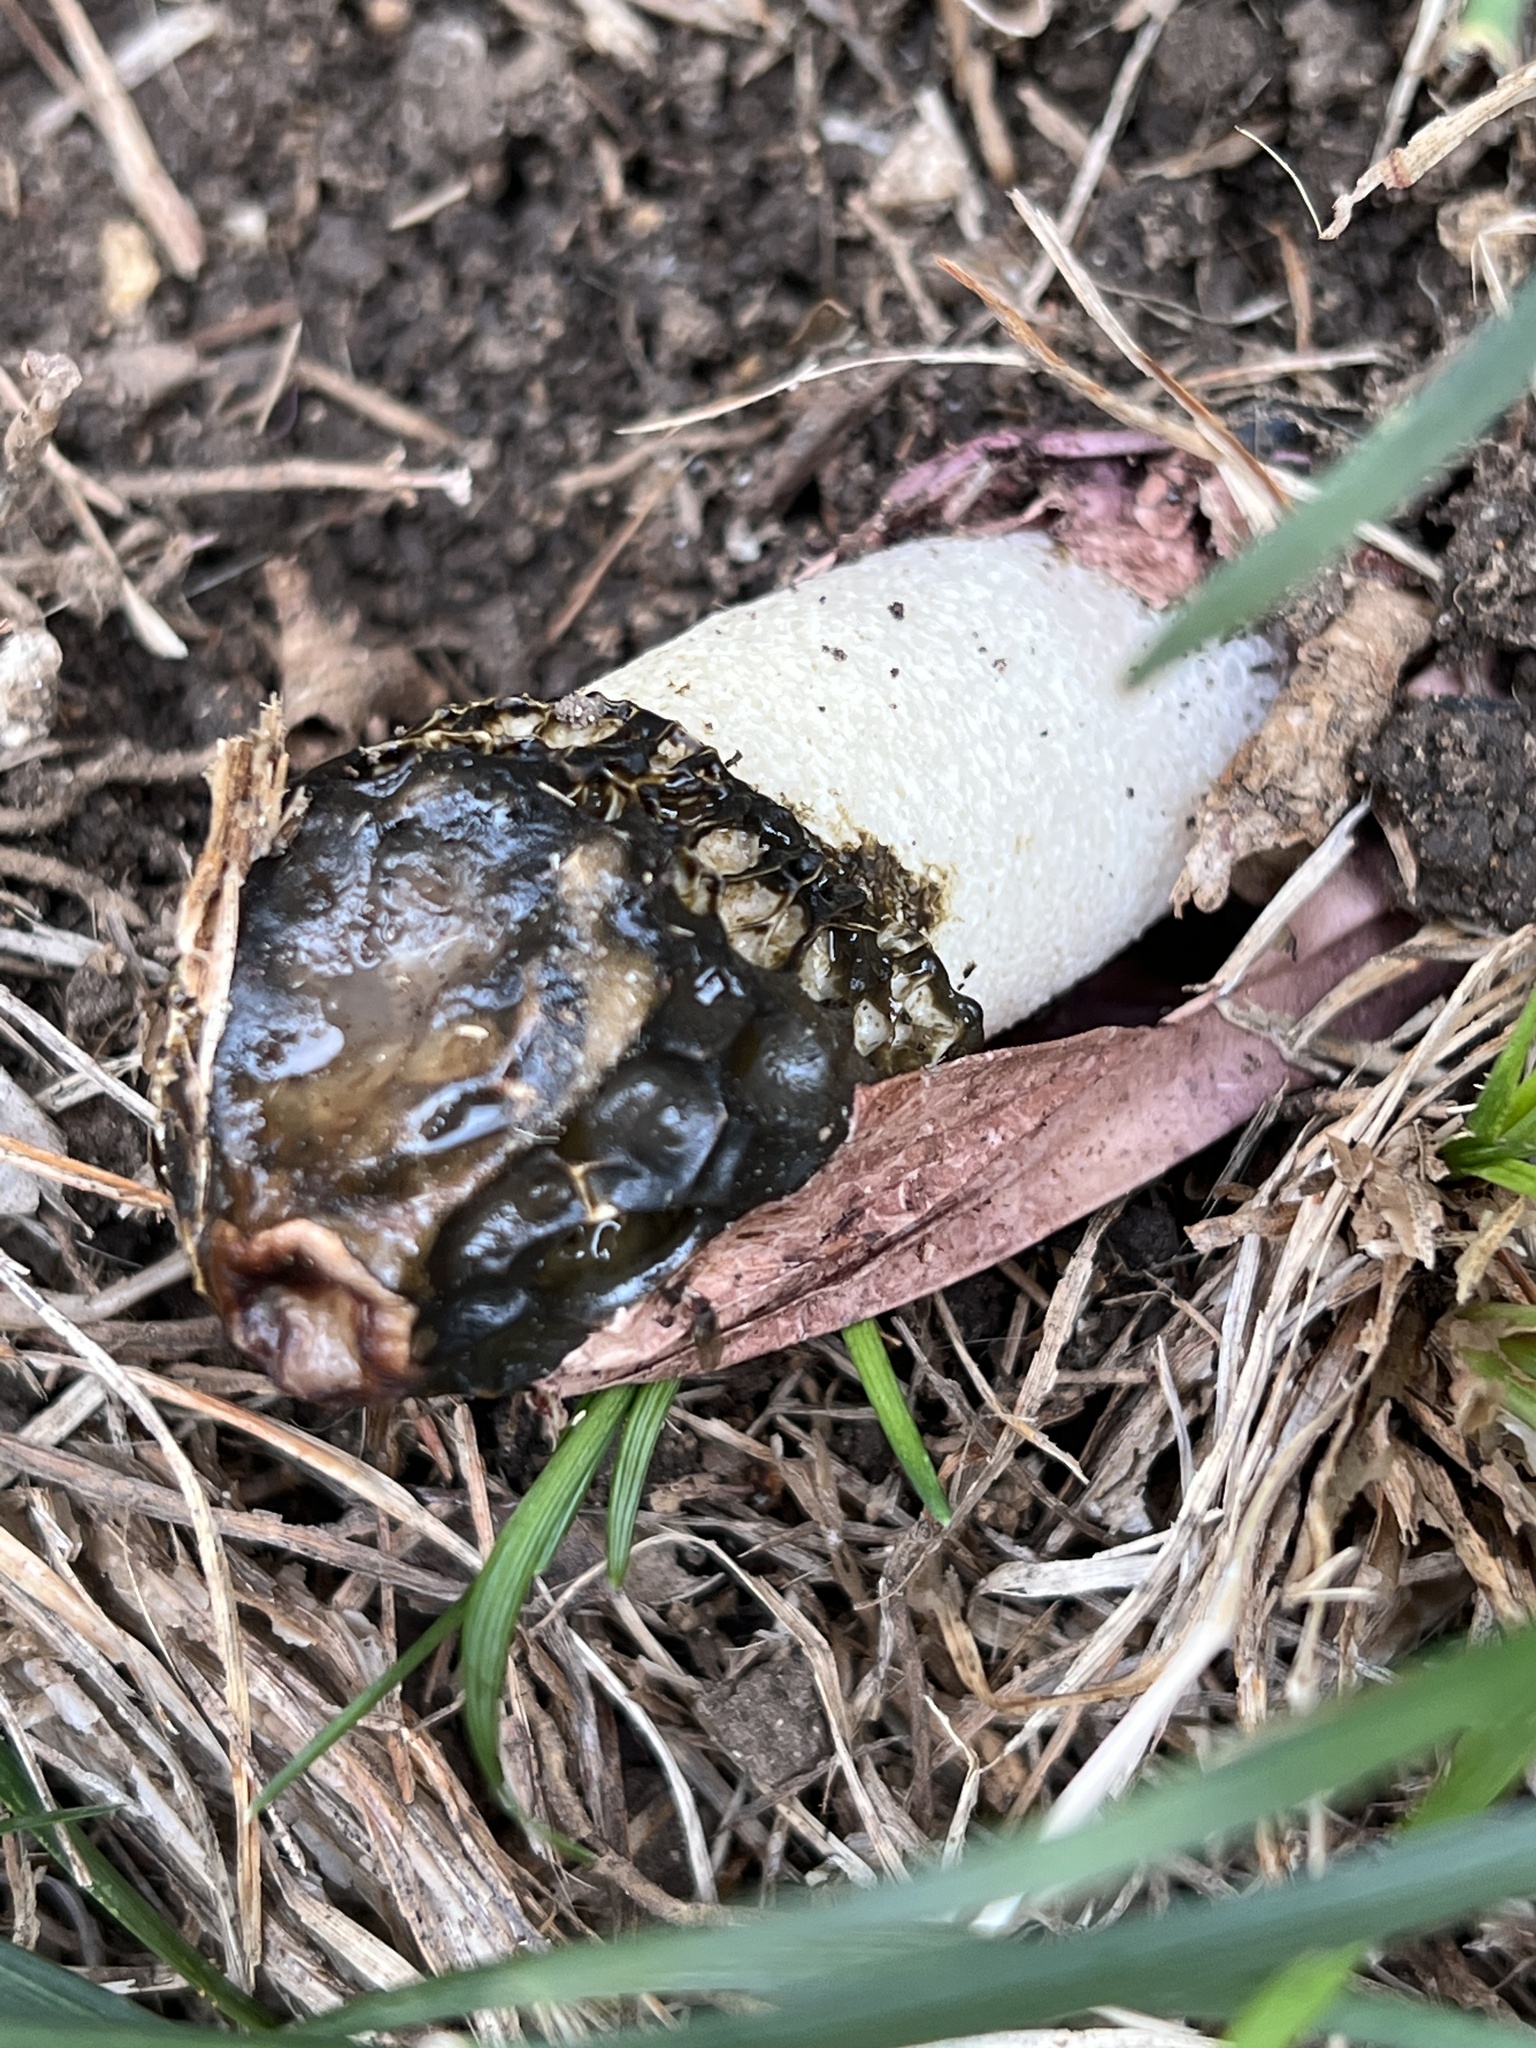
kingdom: Fungi
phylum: Basidiomycota
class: Agaricomycetes
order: Phallales
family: Phallaceae
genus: Phallus
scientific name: Phallus hadriani
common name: Sand stinkhorn
